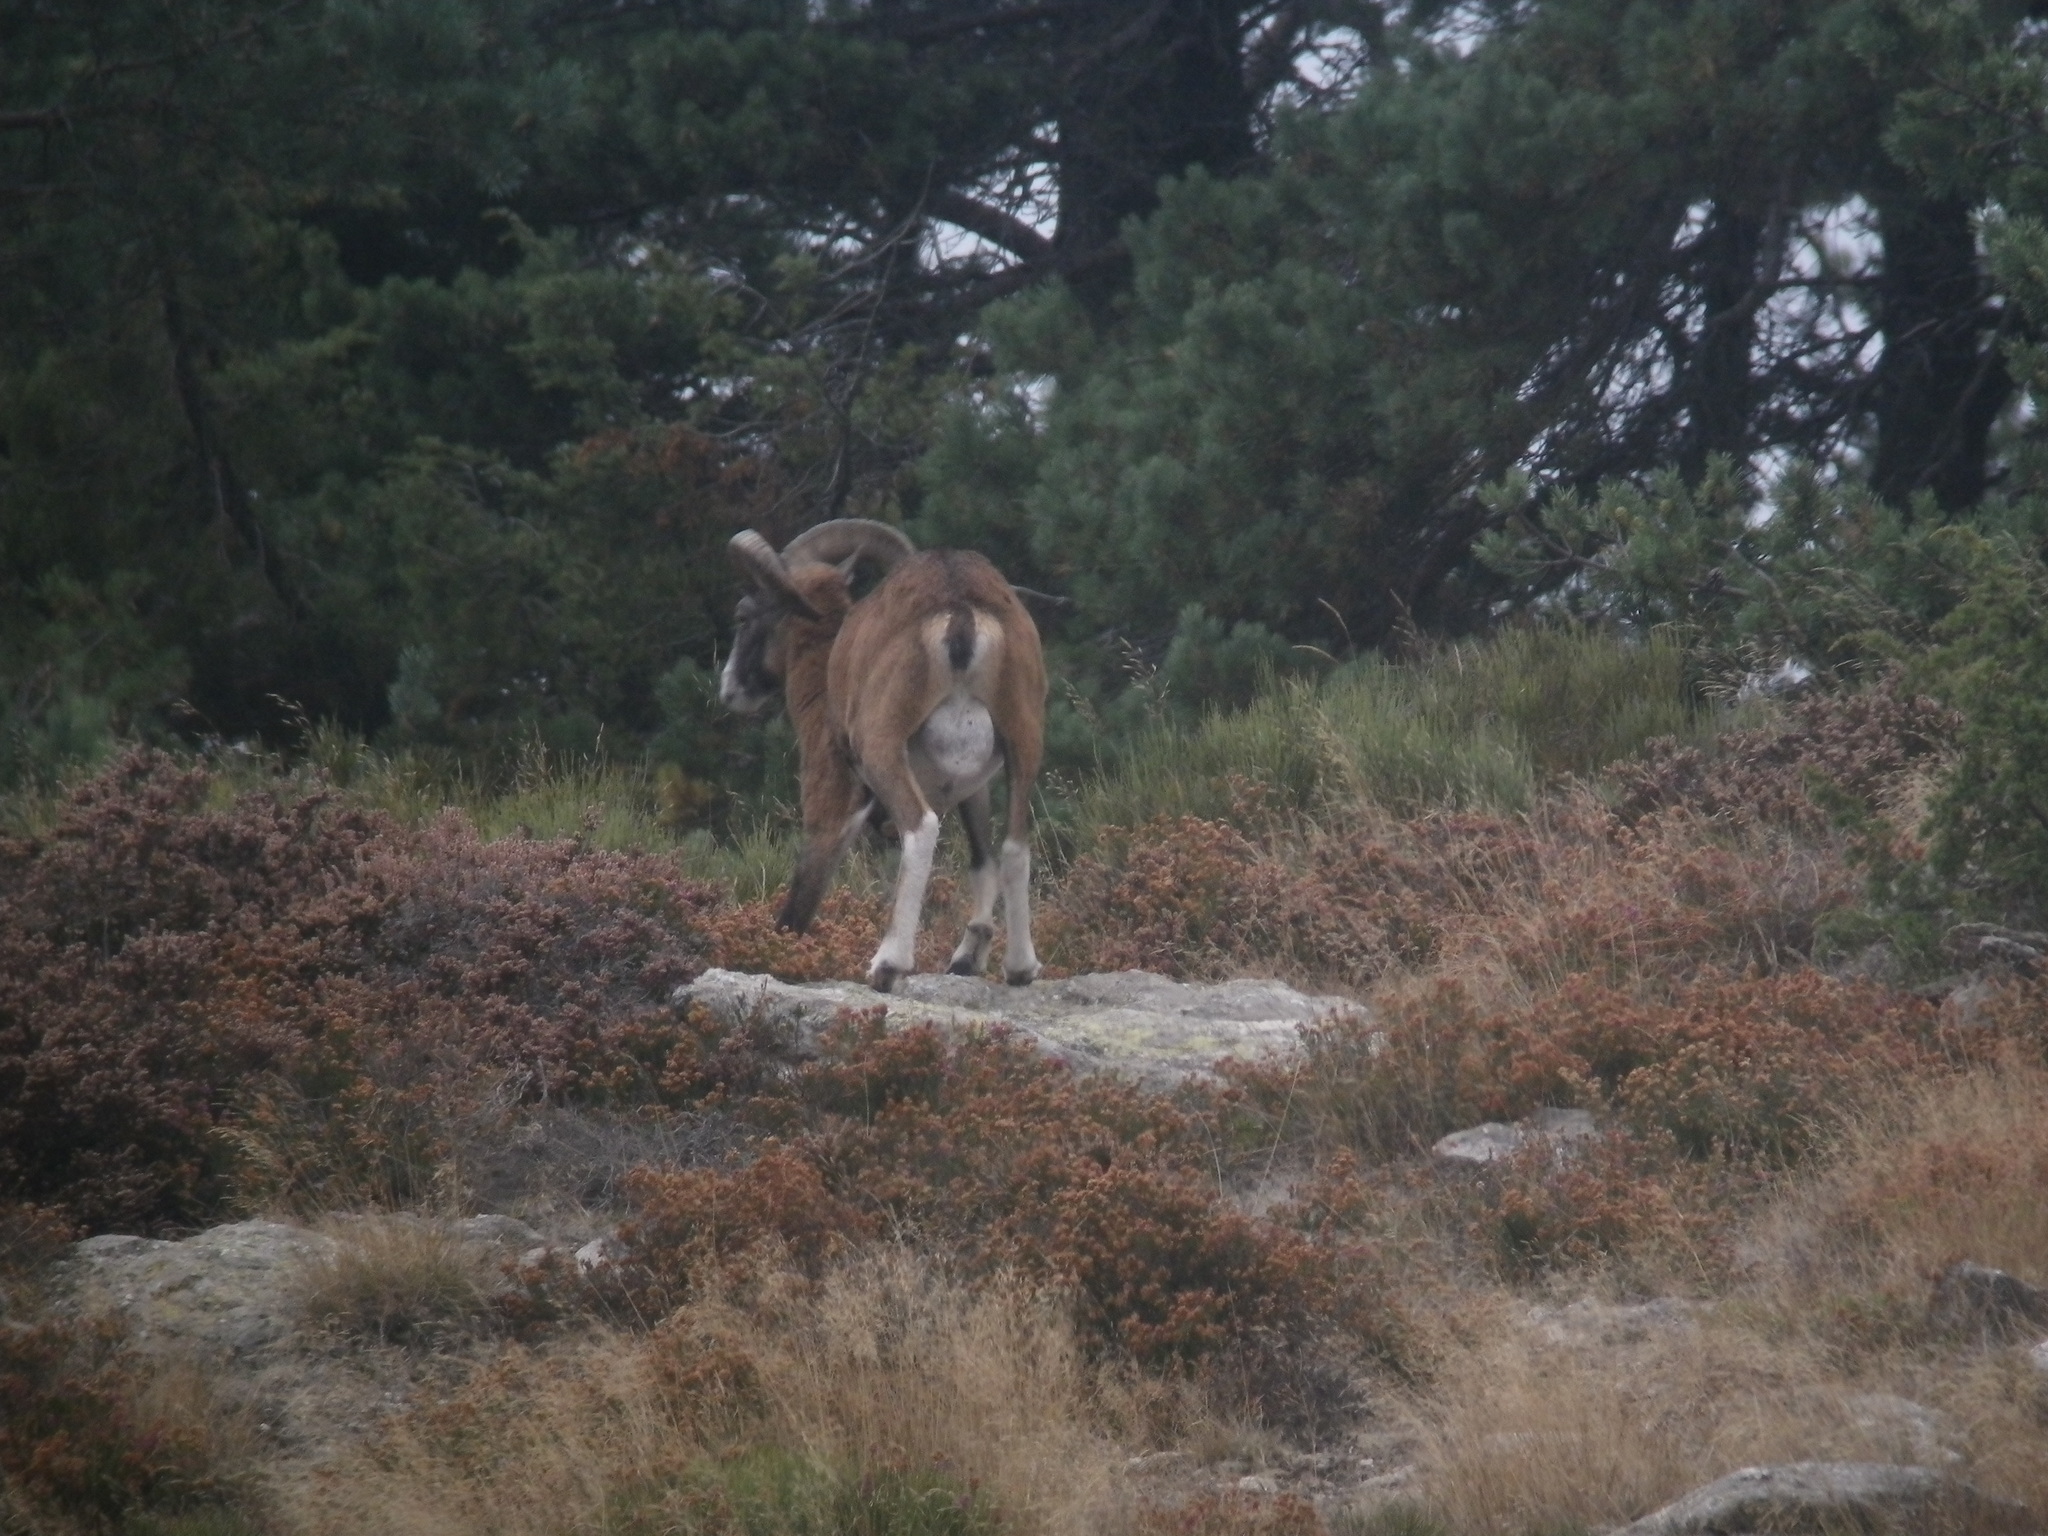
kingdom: Animalia
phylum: Chordata
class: Mammalia
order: Artiodactyla
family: Bovidae
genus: Ovis
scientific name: Ovis aries
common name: Domestic sheep
